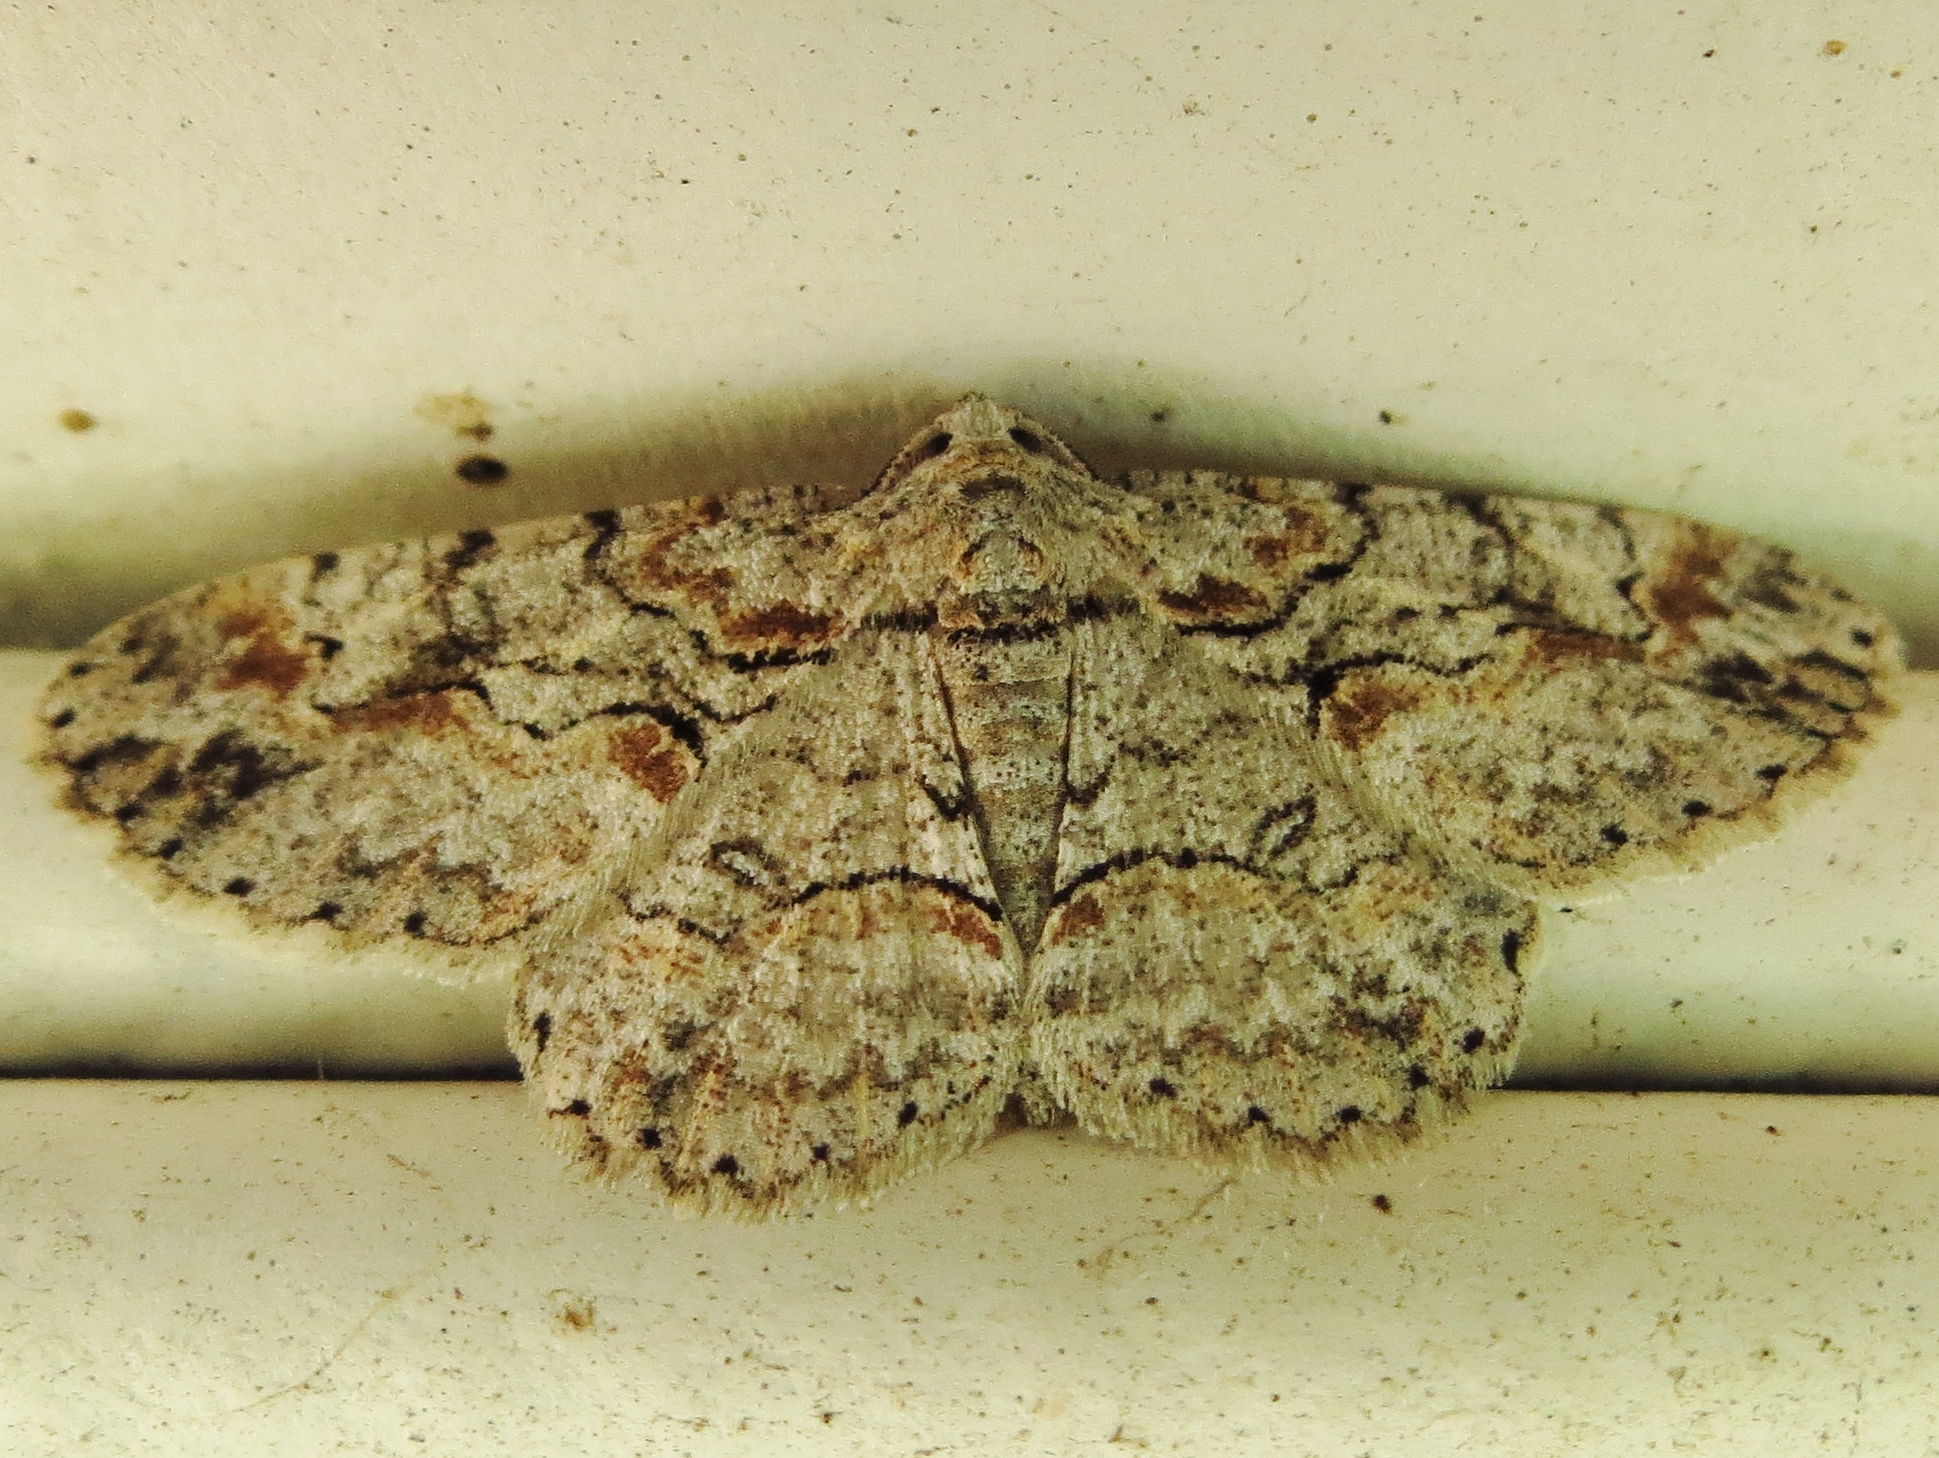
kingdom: Animalia
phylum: Arthropoda
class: Insecta
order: Lepidoptera
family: Geometridae
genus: Iridopsis
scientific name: Iridopsis defectaria
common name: Brown-shaded gray
